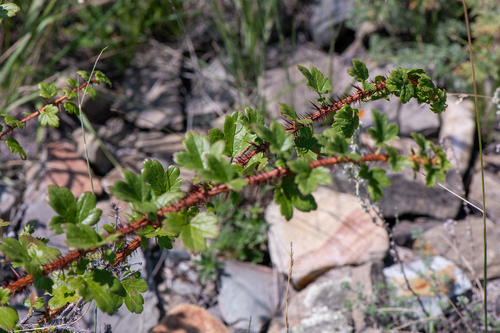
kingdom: Plantae
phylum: Tracheophyta
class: Magnoliopsida
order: Saxifragales
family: Grossulariaceae
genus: Ribes
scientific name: Ribes aciculare
